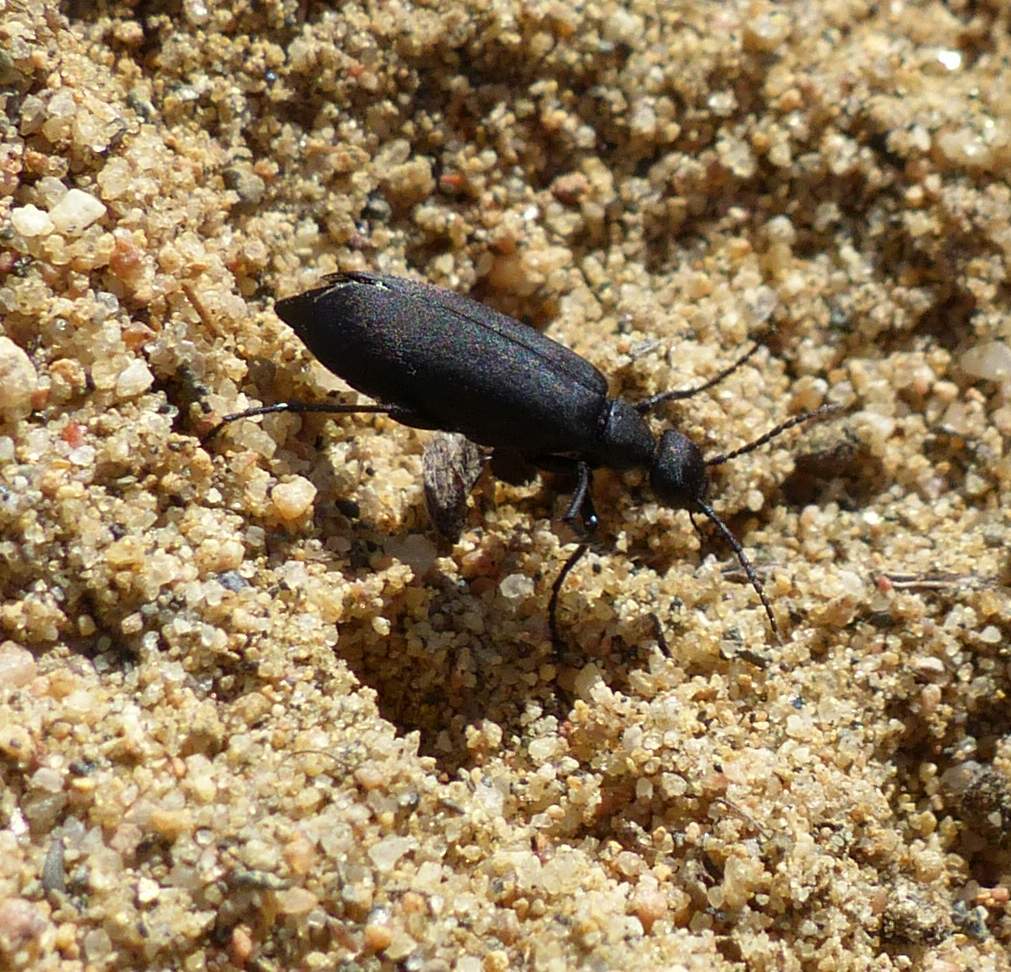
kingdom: Animalia
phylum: Arthropoda
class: Insecta
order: Coleoptera
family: Meloidae
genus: Epicauta
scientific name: Epicauta pensylvanica
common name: Black blister beetle
